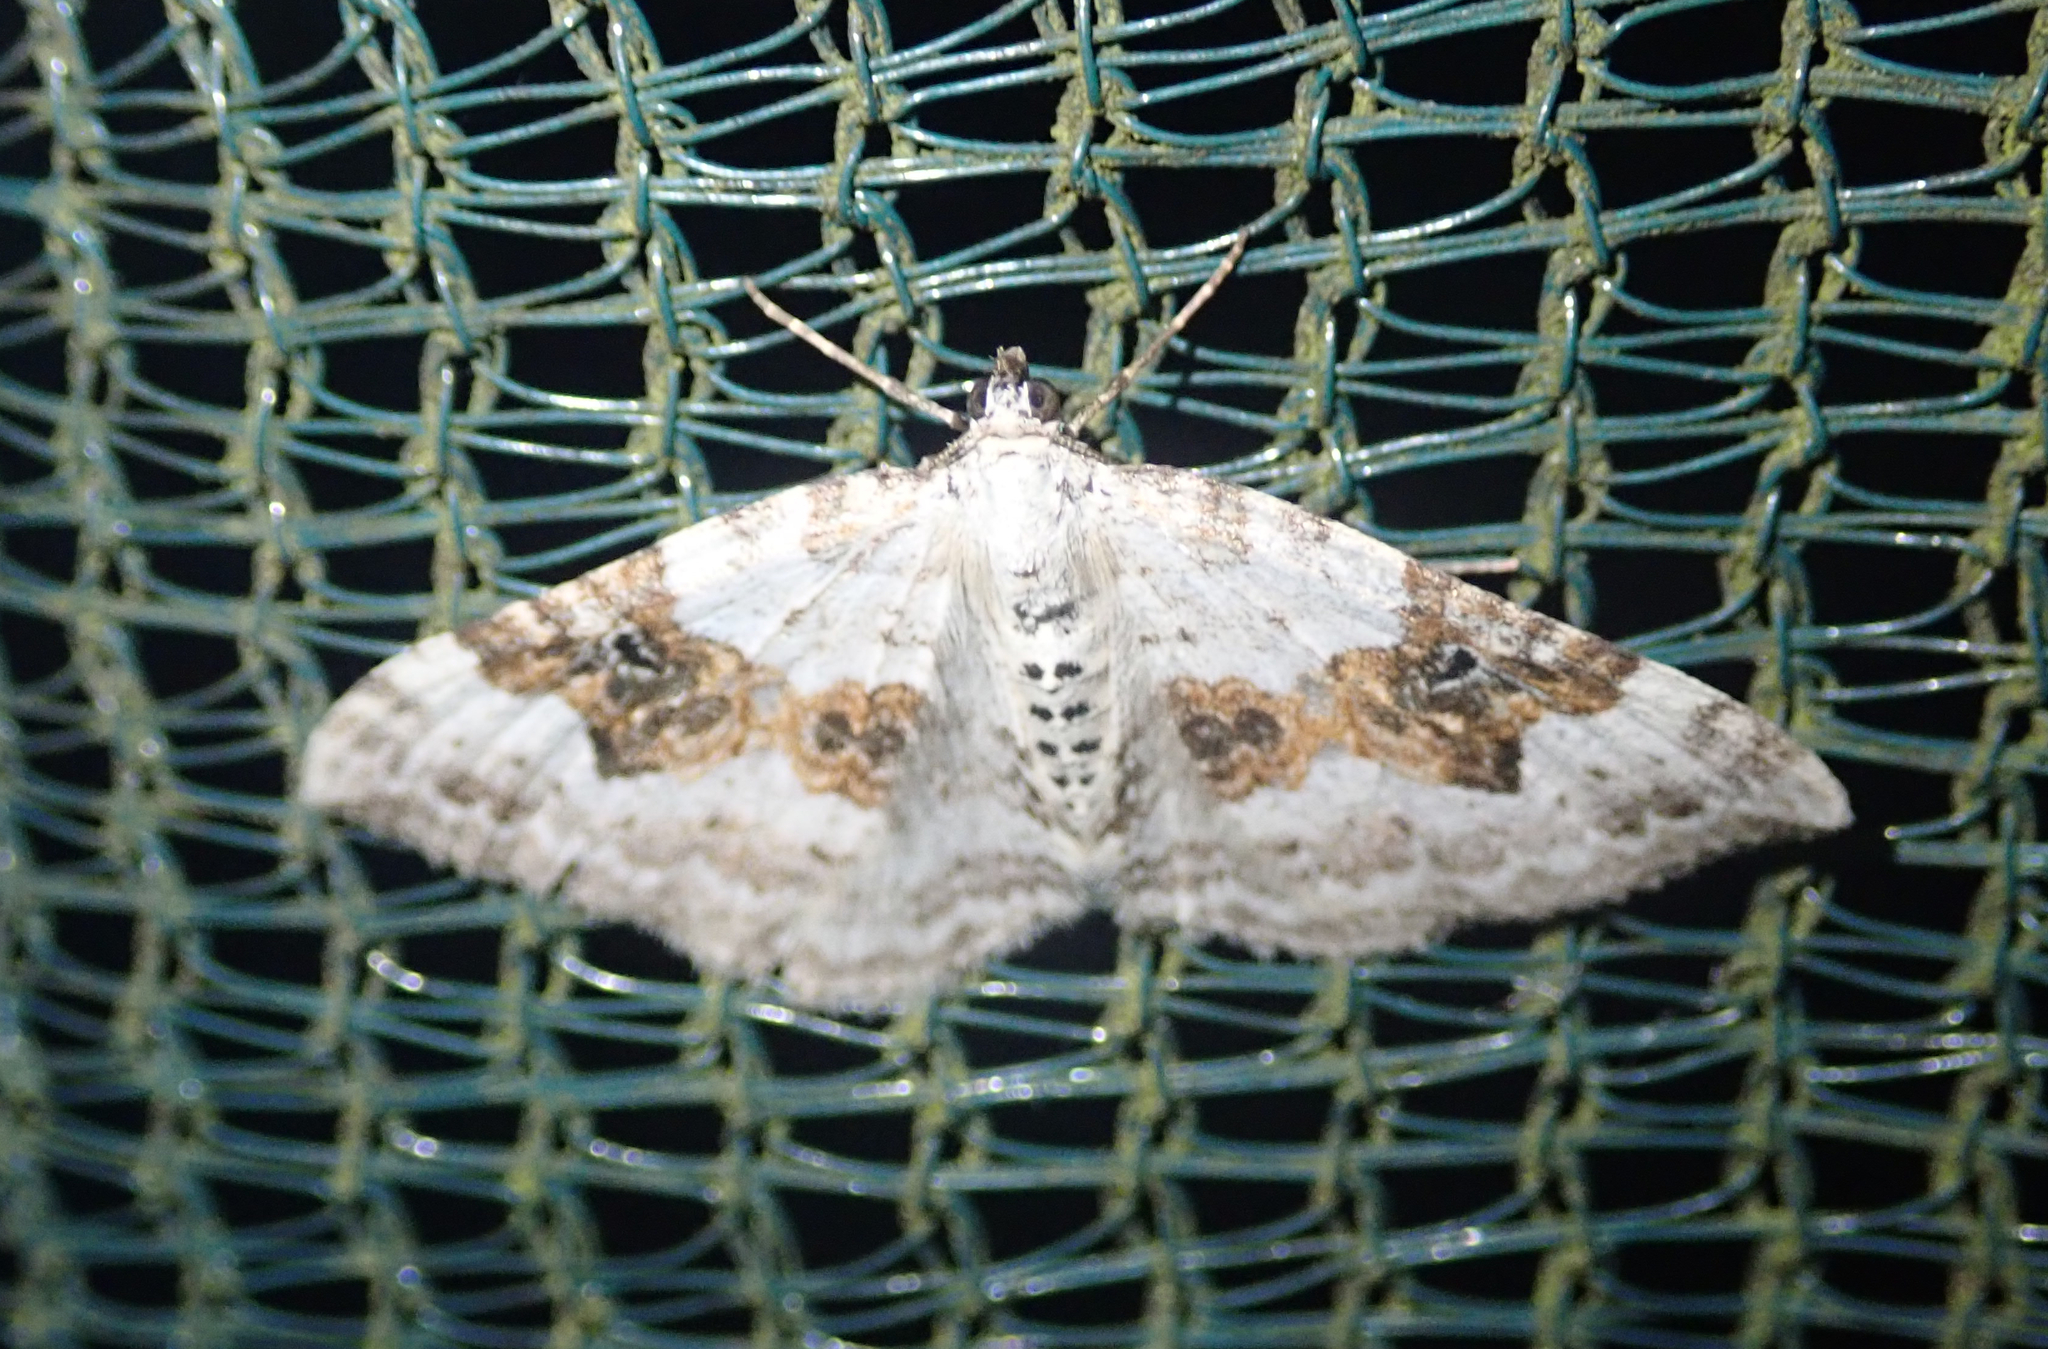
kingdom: Animalia
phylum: Arthropoda
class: Insecta
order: Lepidoptera
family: Geometridae
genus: Xanthorhoe
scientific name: Xanthorhoe montanata
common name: Silver-ground carpet
